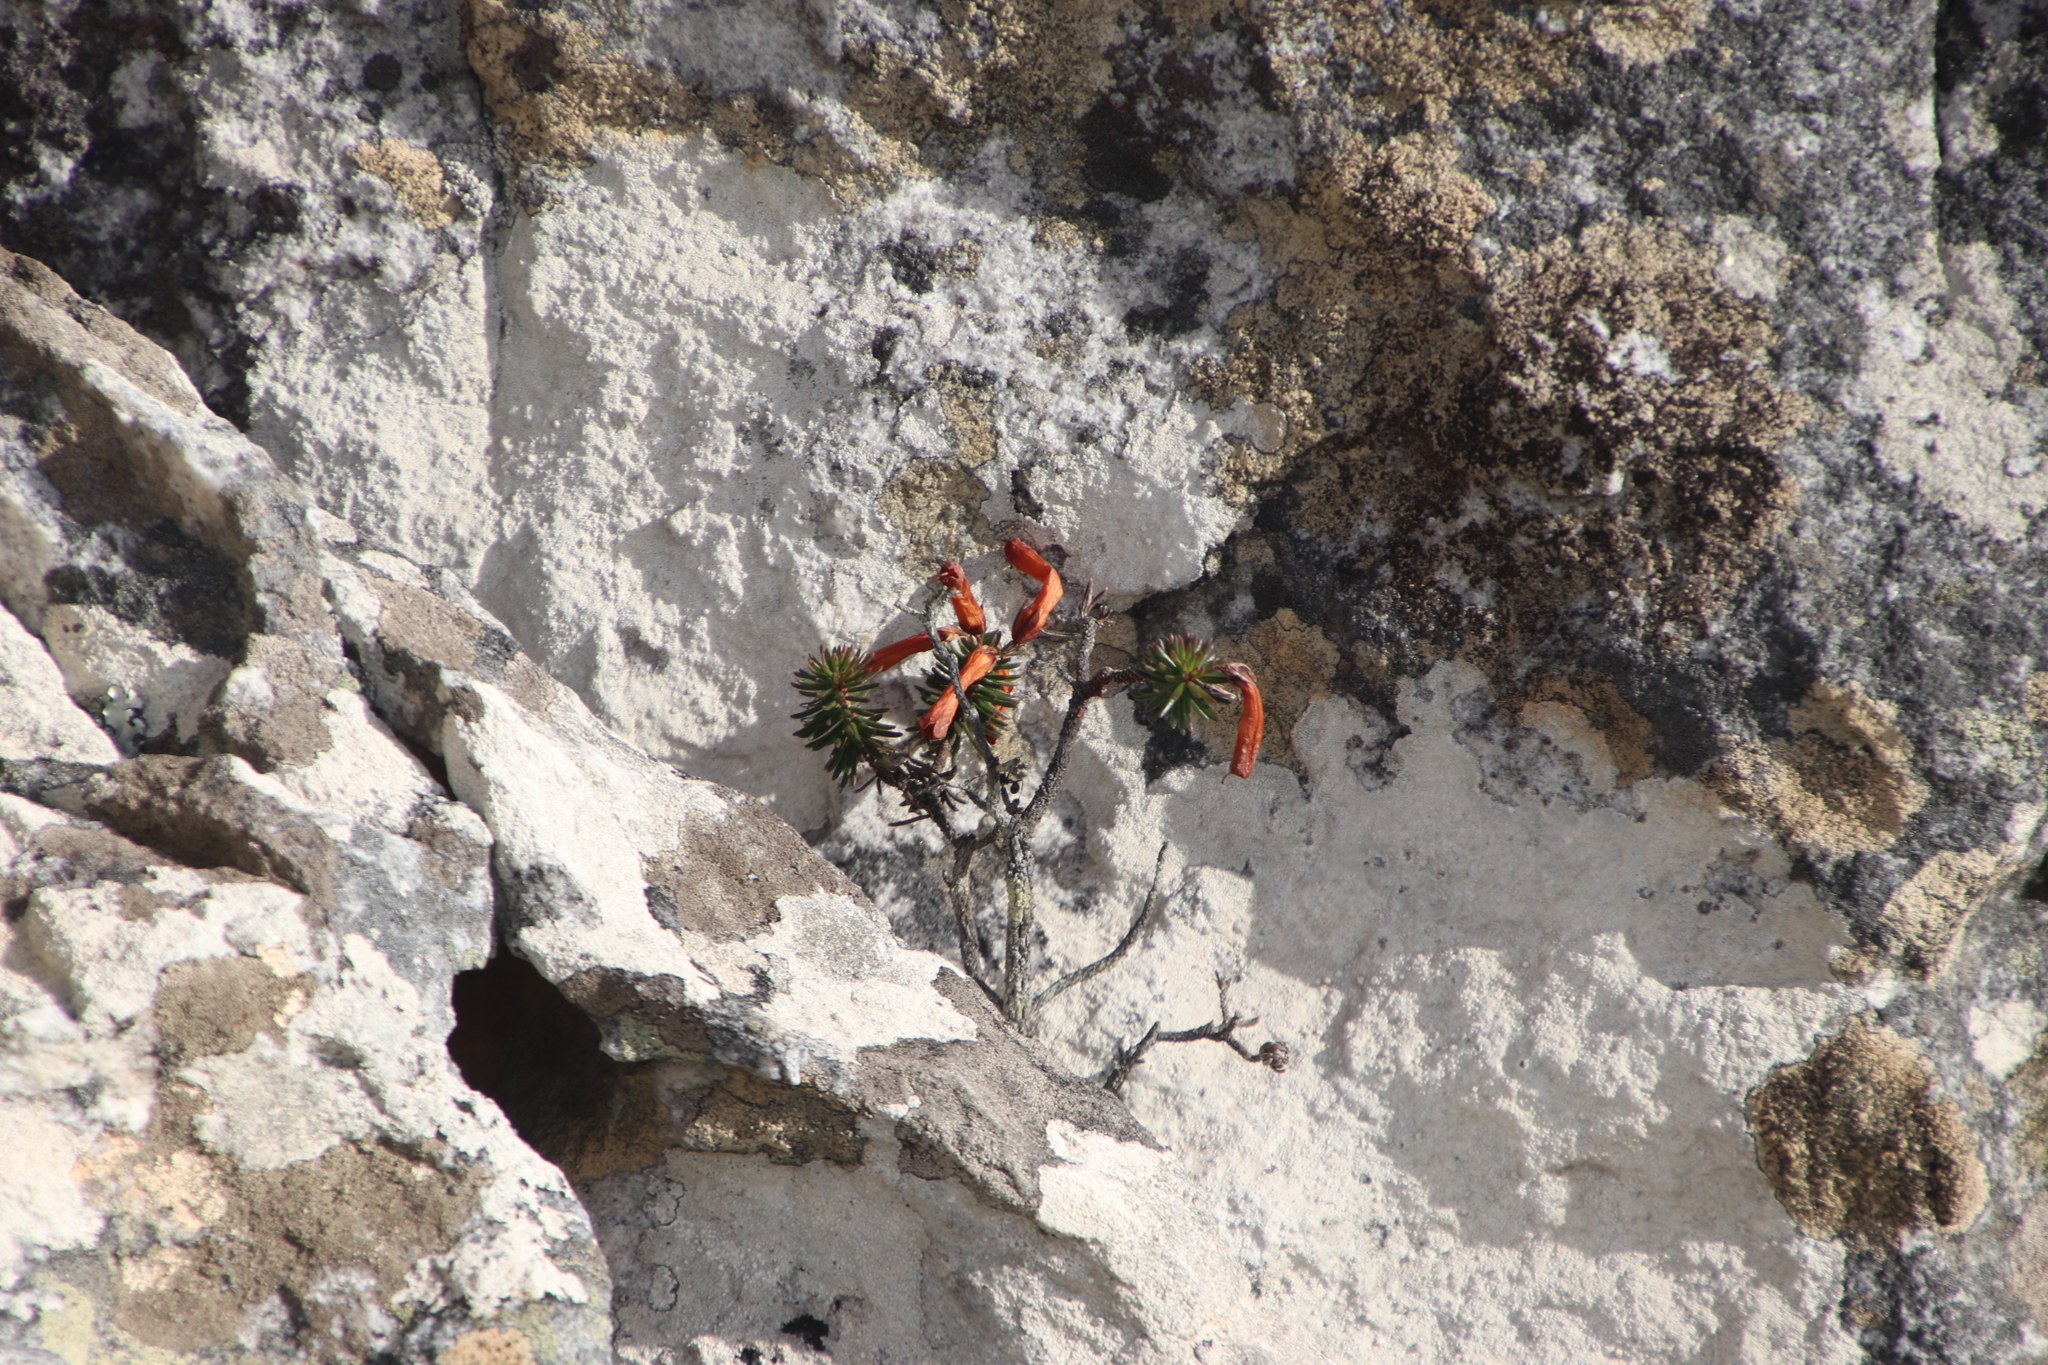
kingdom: Plantae
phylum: Tracheophyta
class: Magnoliopsida
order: Ericales
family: Ericaceae
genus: Erica
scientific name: Erica nevillei
